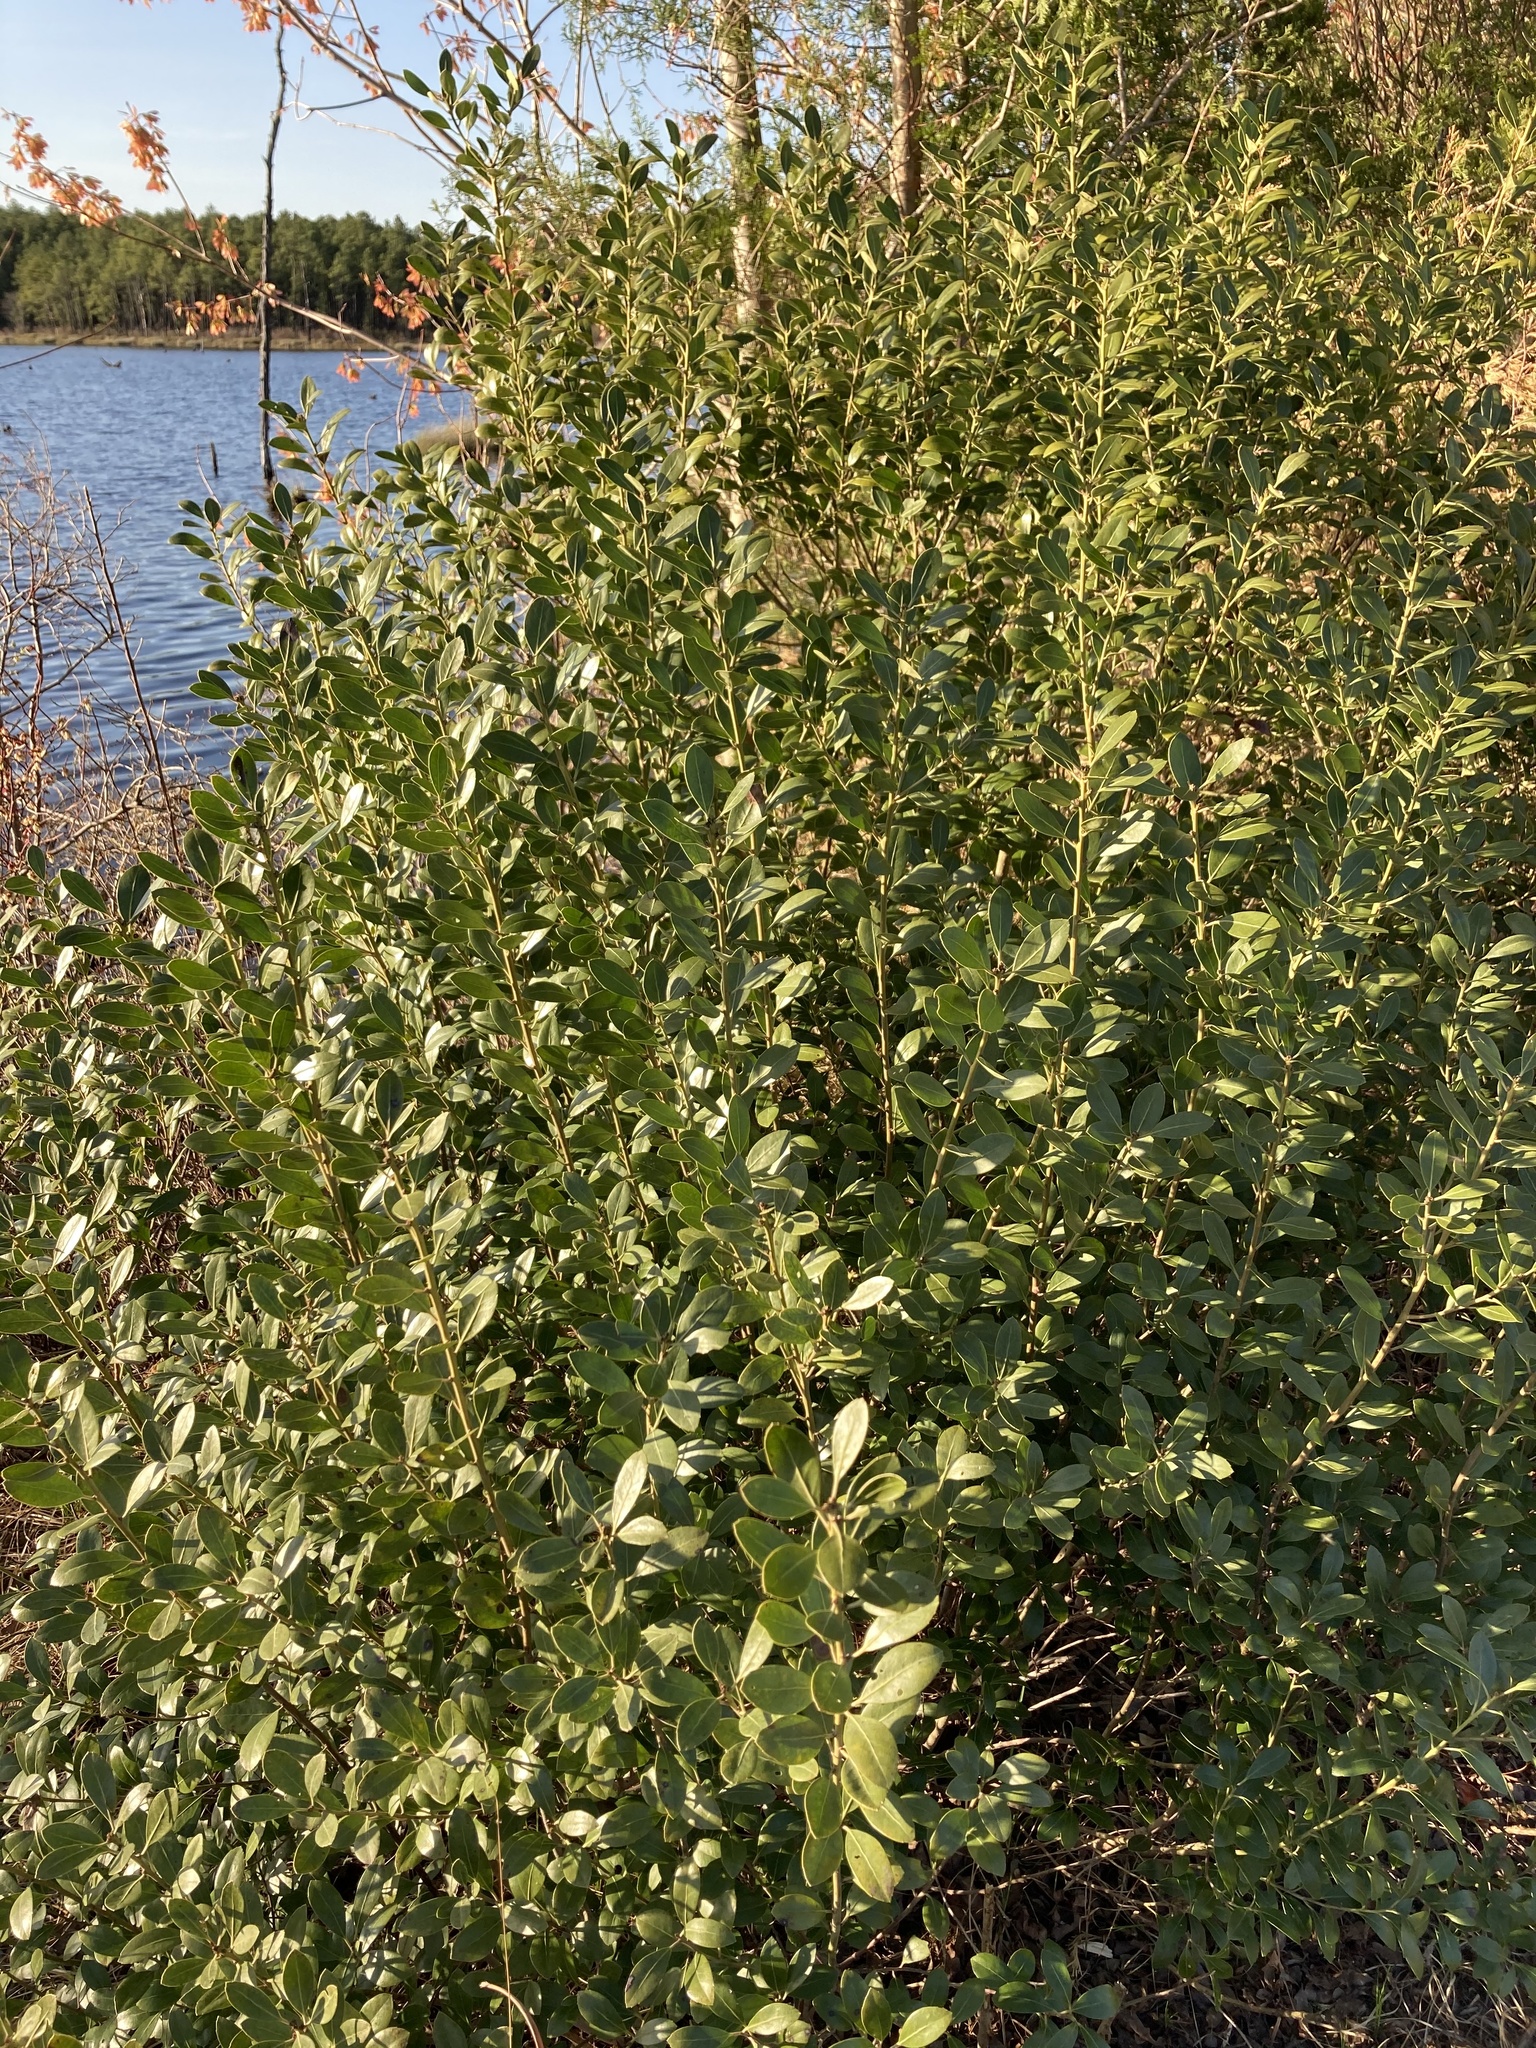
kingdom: Plantae
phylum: Tracheophyta
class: Magnoliopsida
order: Aquifoliales
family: Aquifoliaceae
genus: Ilex
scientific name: Ilex glabra
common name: Bitter gallberry
